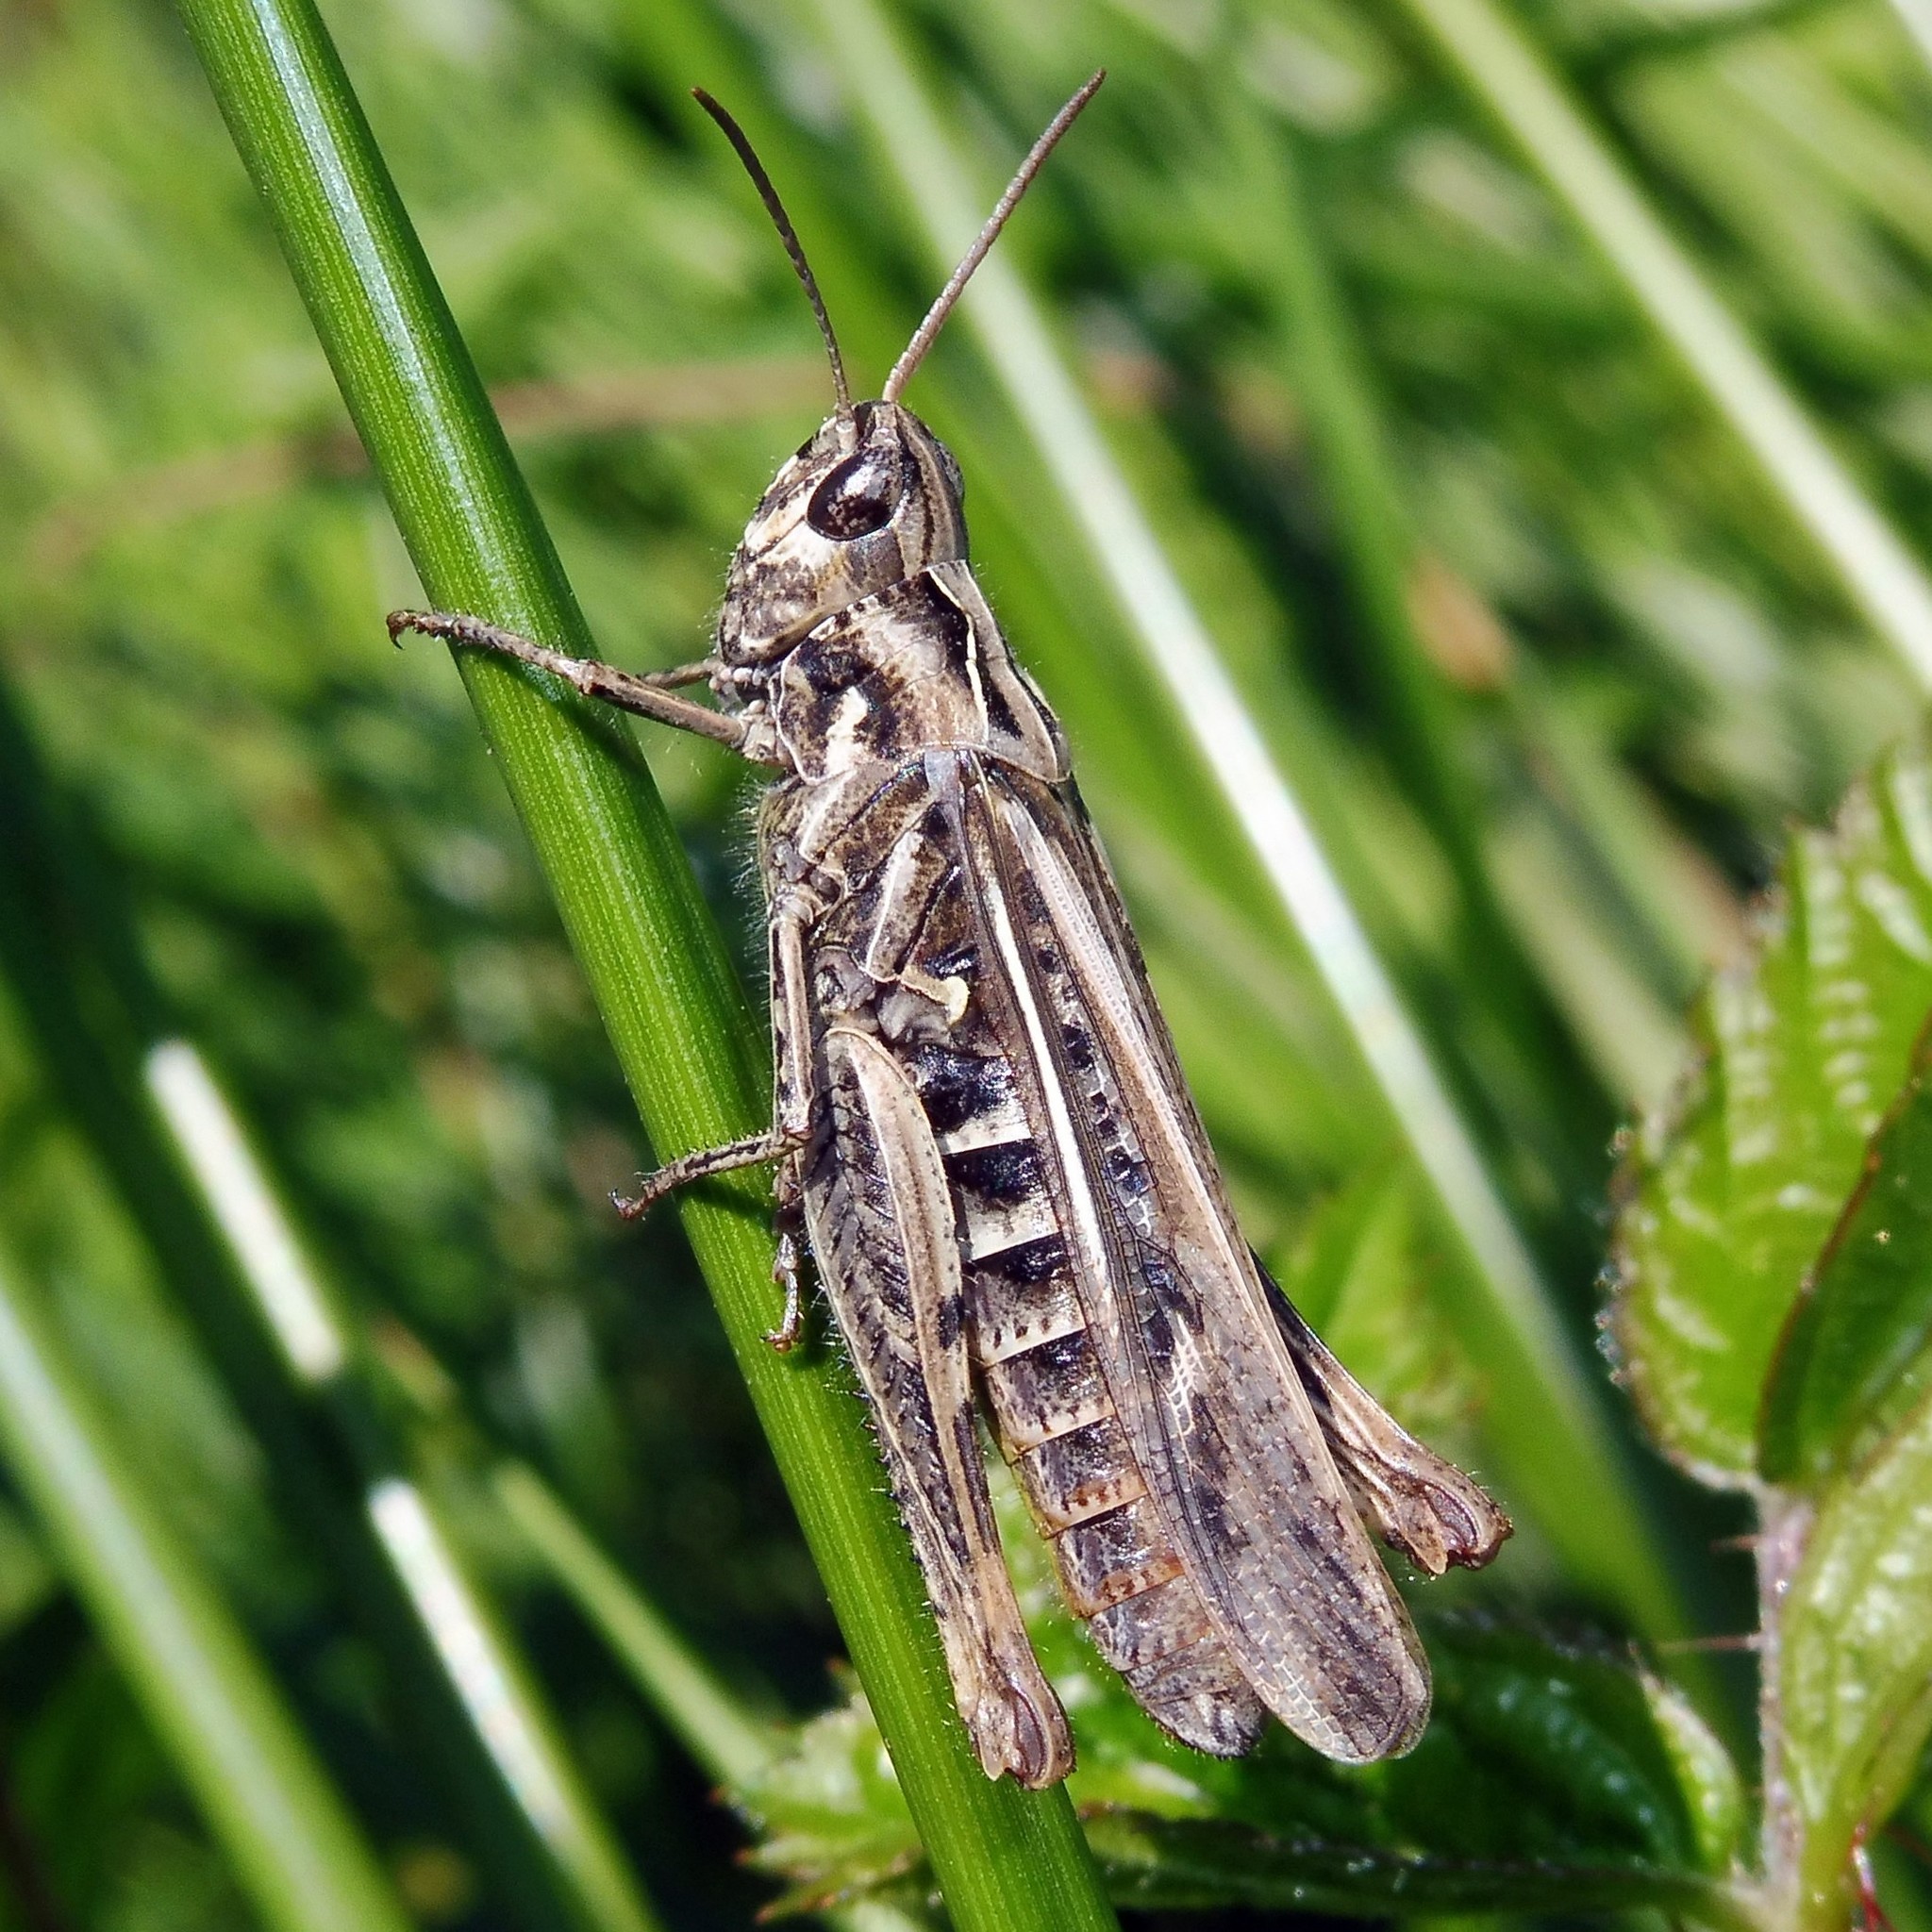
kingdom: Animalia
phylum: Arthropoda
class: Insecta
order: Orthoptera
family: Acrididae
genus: Chorthippus
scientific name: Chorthippus brunneus
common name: Field grasshopper
